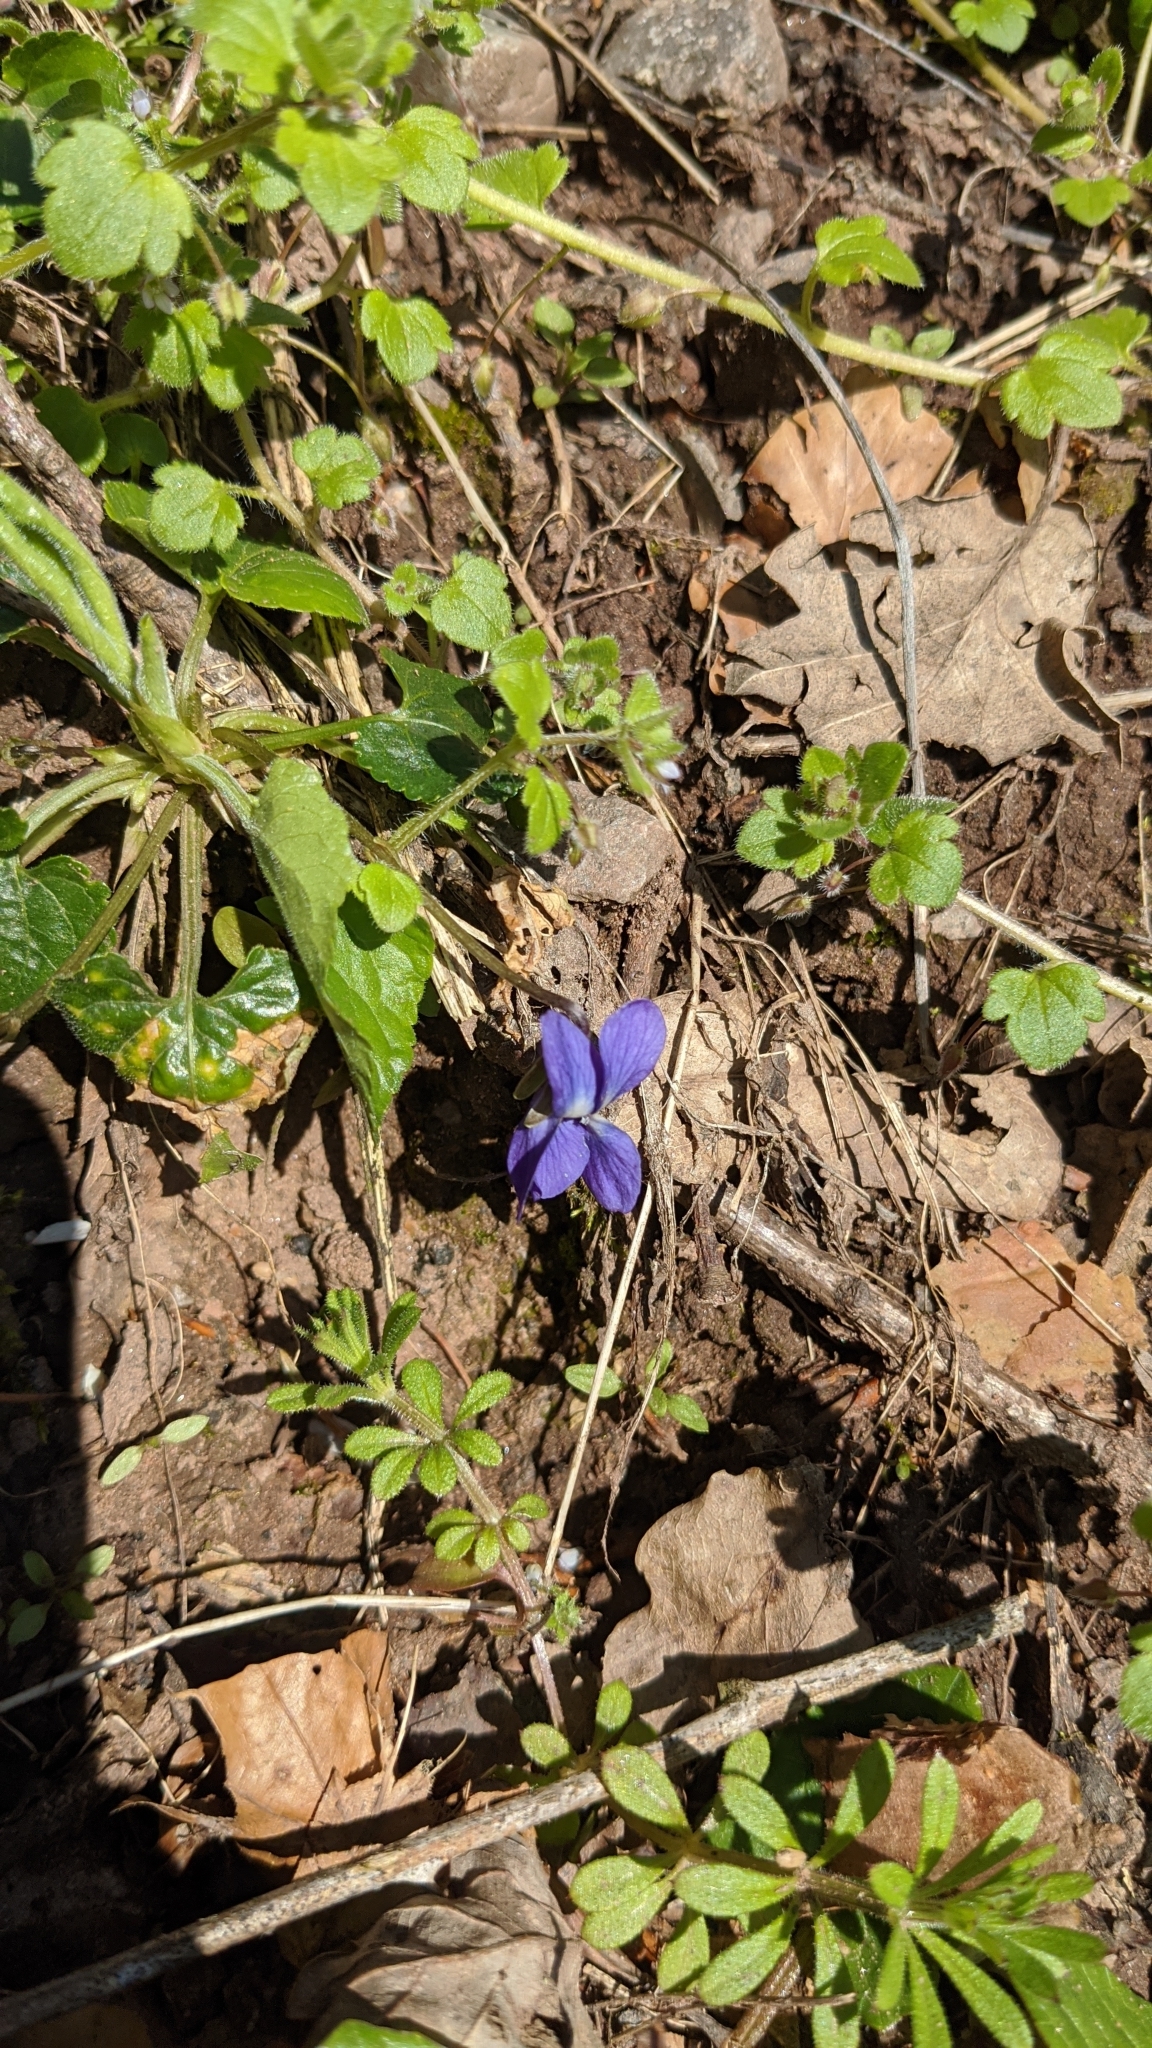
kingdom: Plantae
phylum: Tracheophyta
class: Magnoliopsida
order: Malpighiales
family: Violaceae
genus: Viola
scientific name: Viola odorata
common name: Sweet violet
